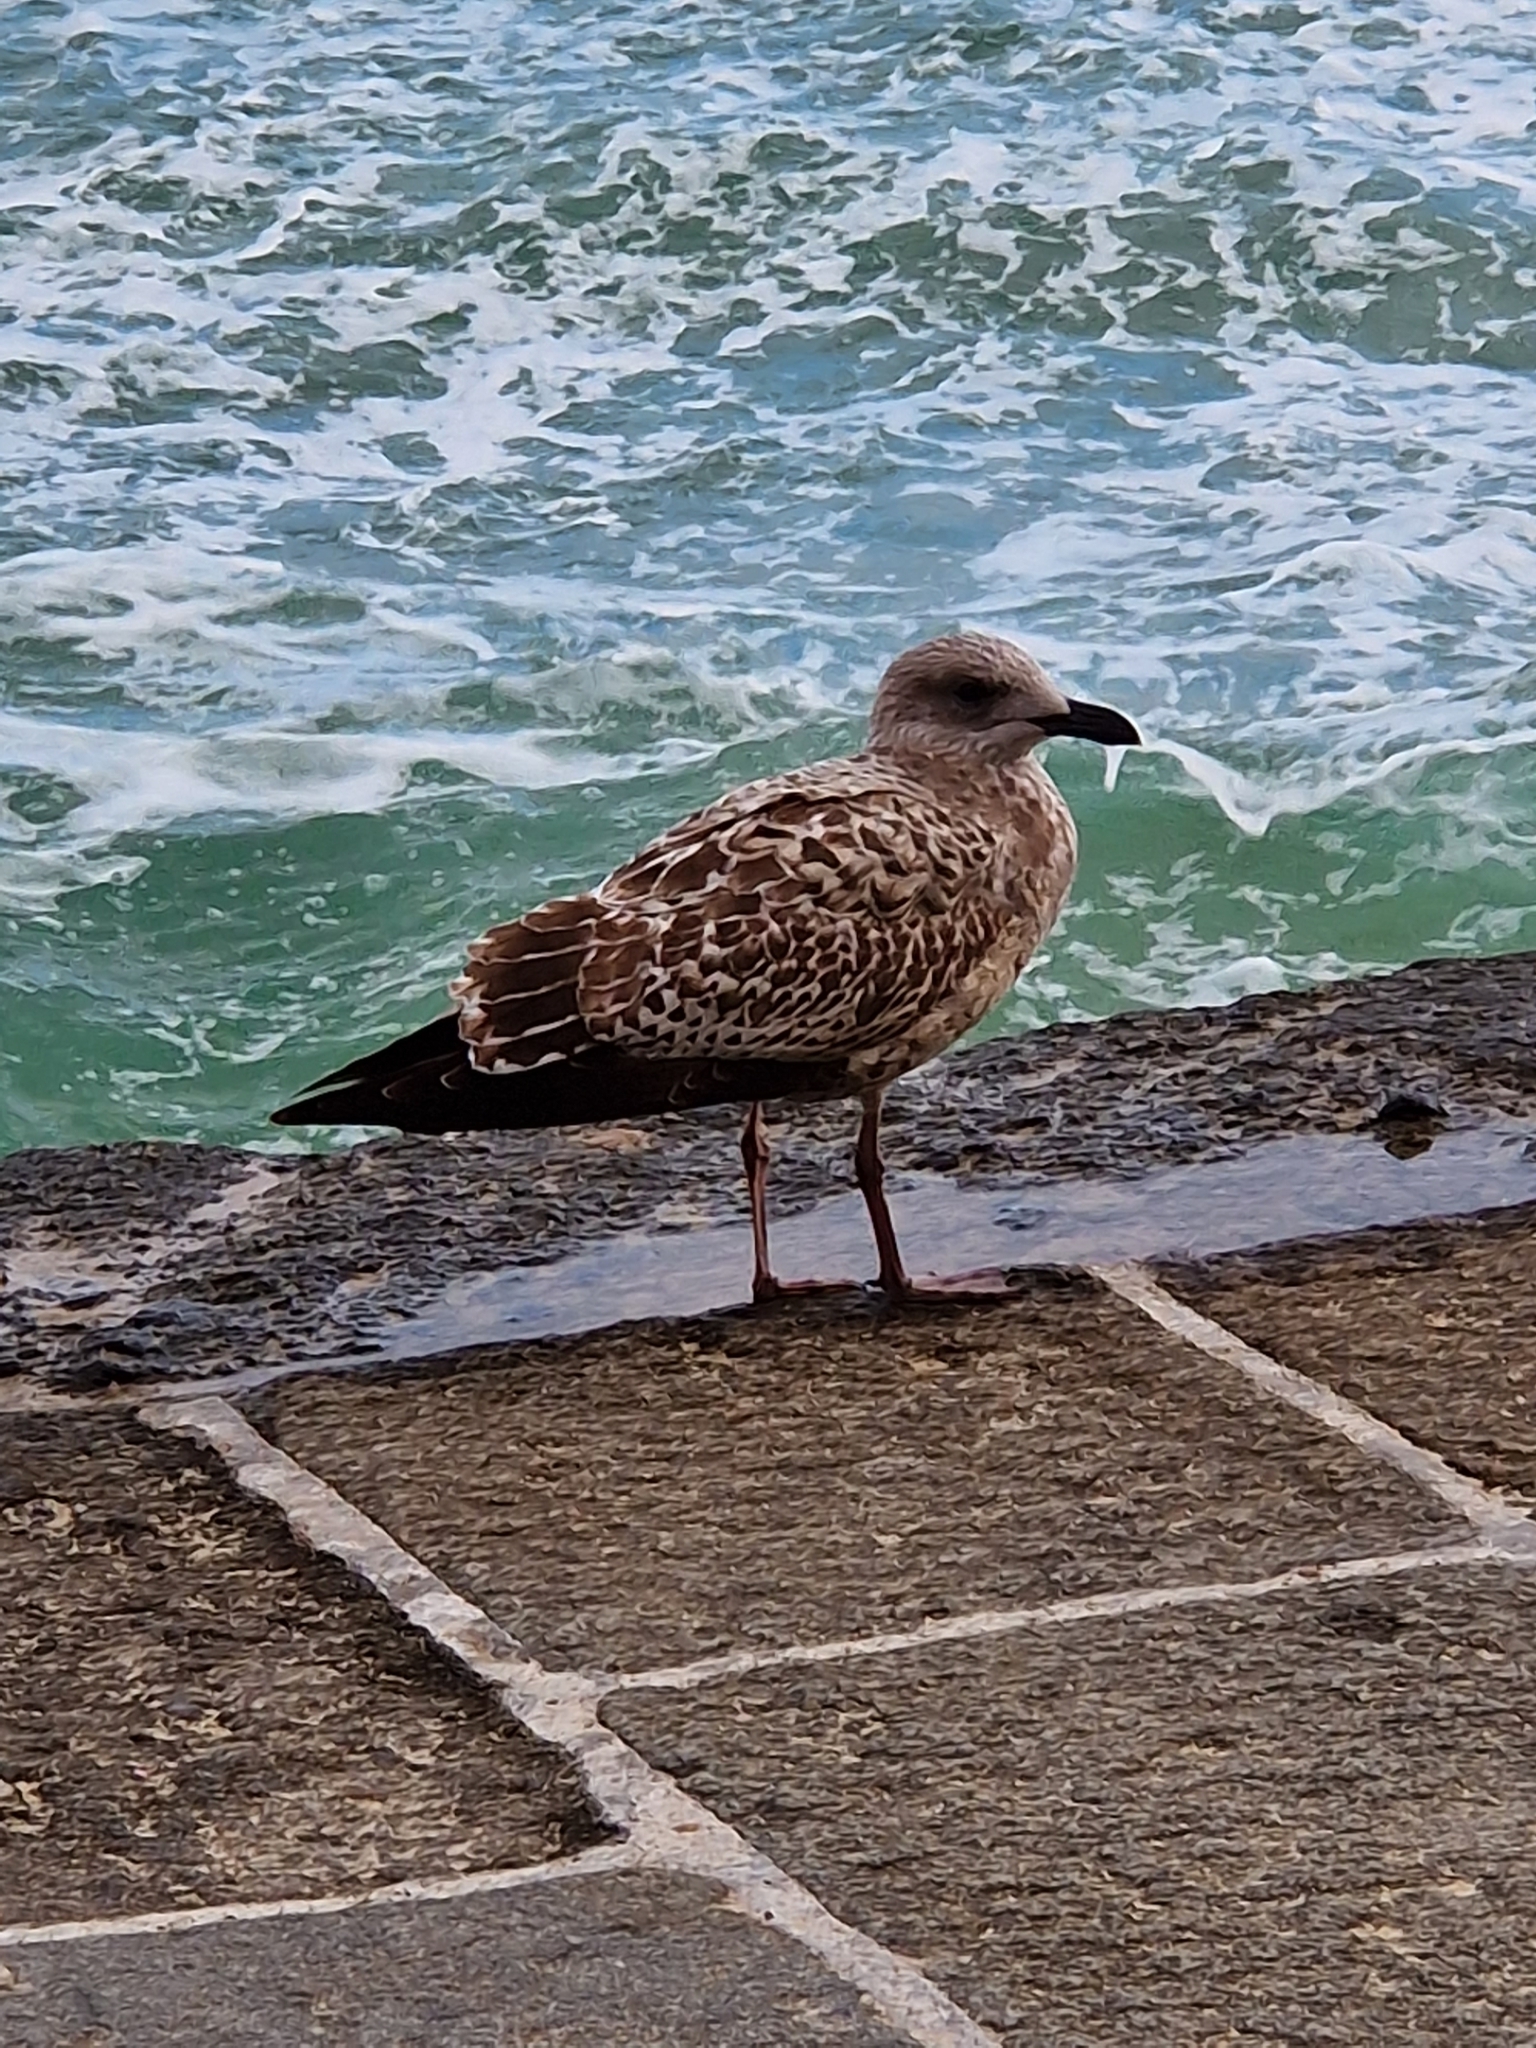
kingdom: Animalia
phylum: Chordata
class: Aves
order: Charadriiformes
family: Laridae
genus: Larus
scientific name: Larus argentatus
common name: Herring gull
